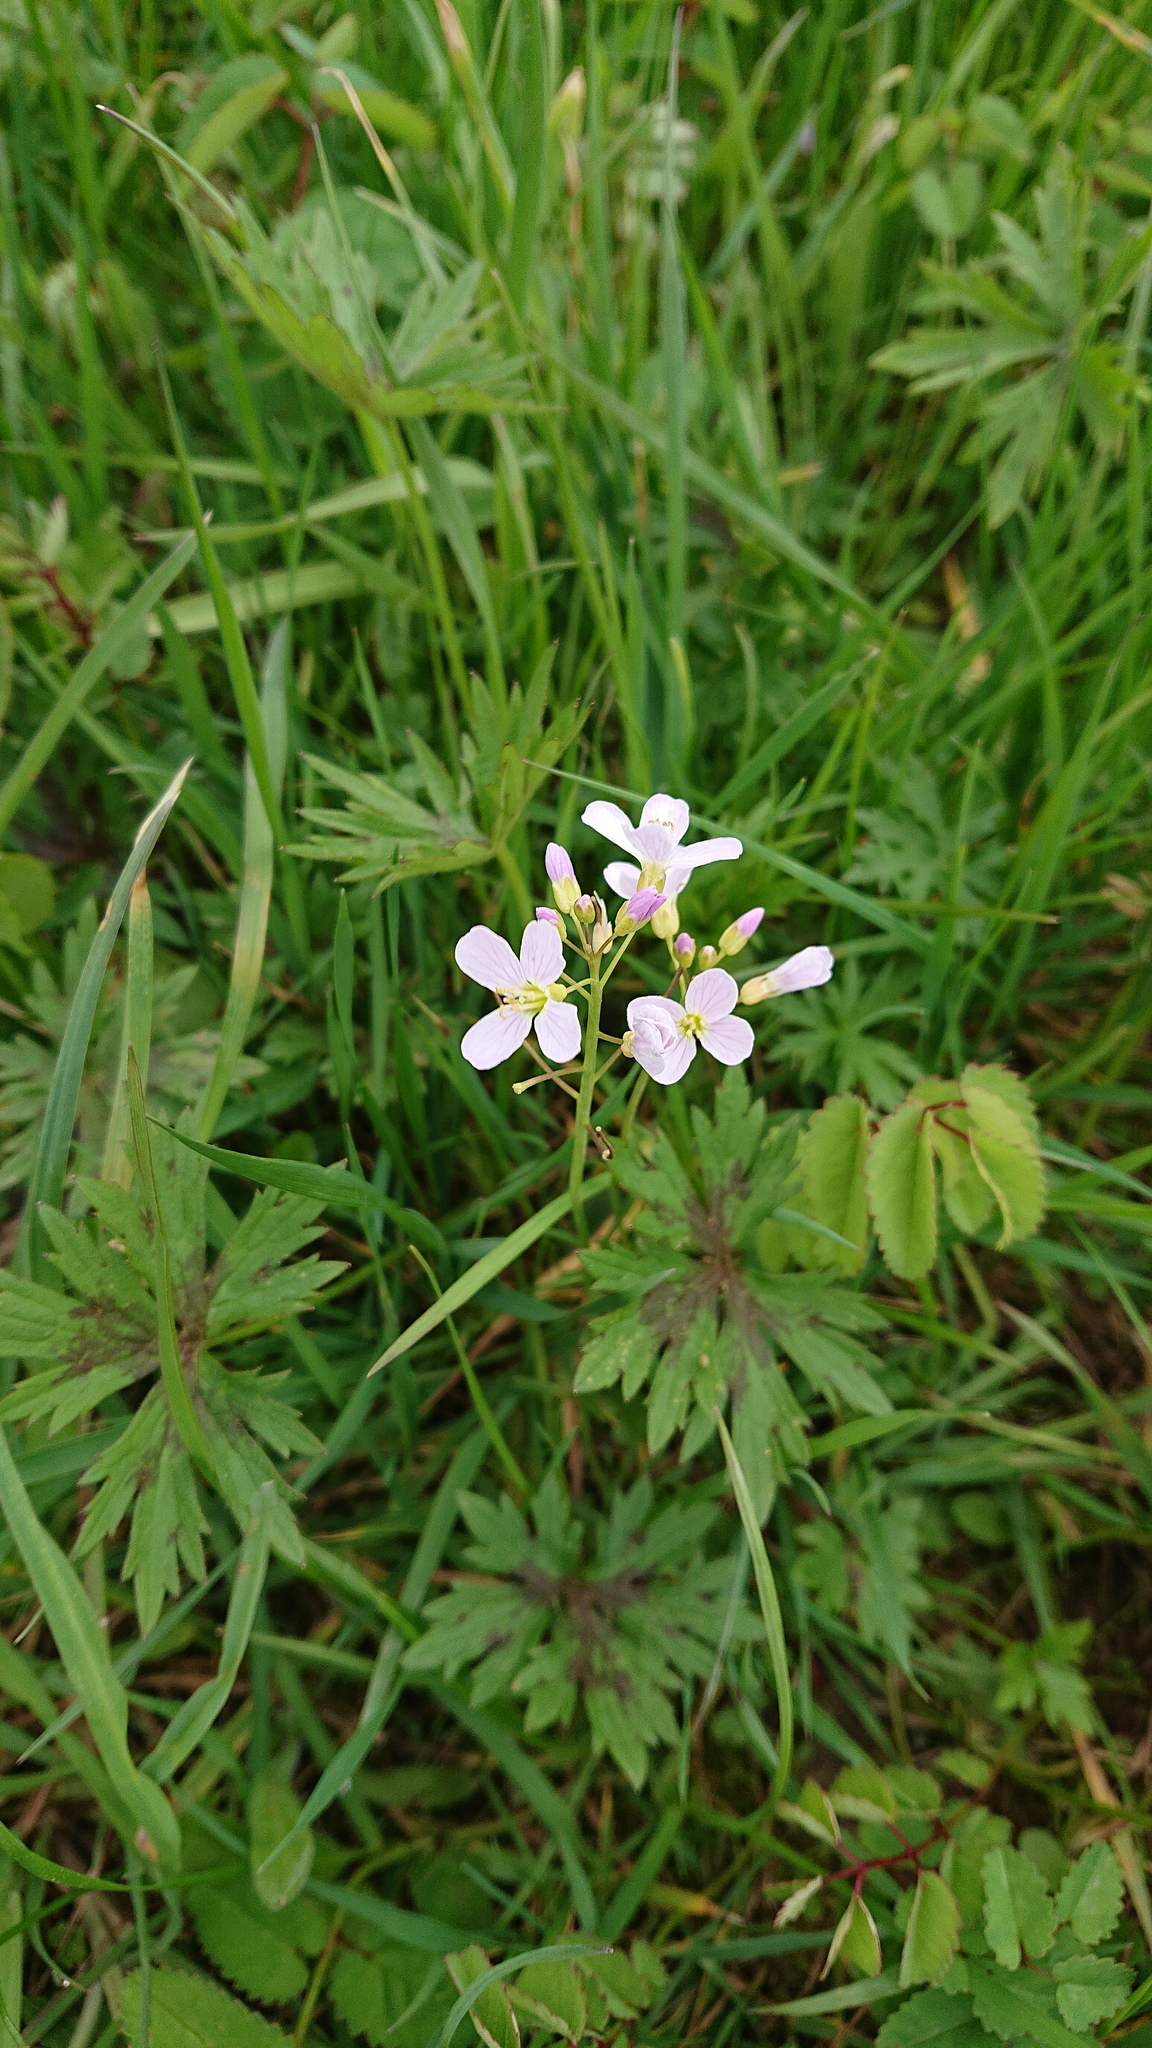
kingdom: Plantae
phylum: Tracheophyta
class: Magnoliopsida
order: Brassicales
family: Brassicaceae
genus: Cardamine
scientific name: Cardamine pratensis
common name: Cuckoo flower
